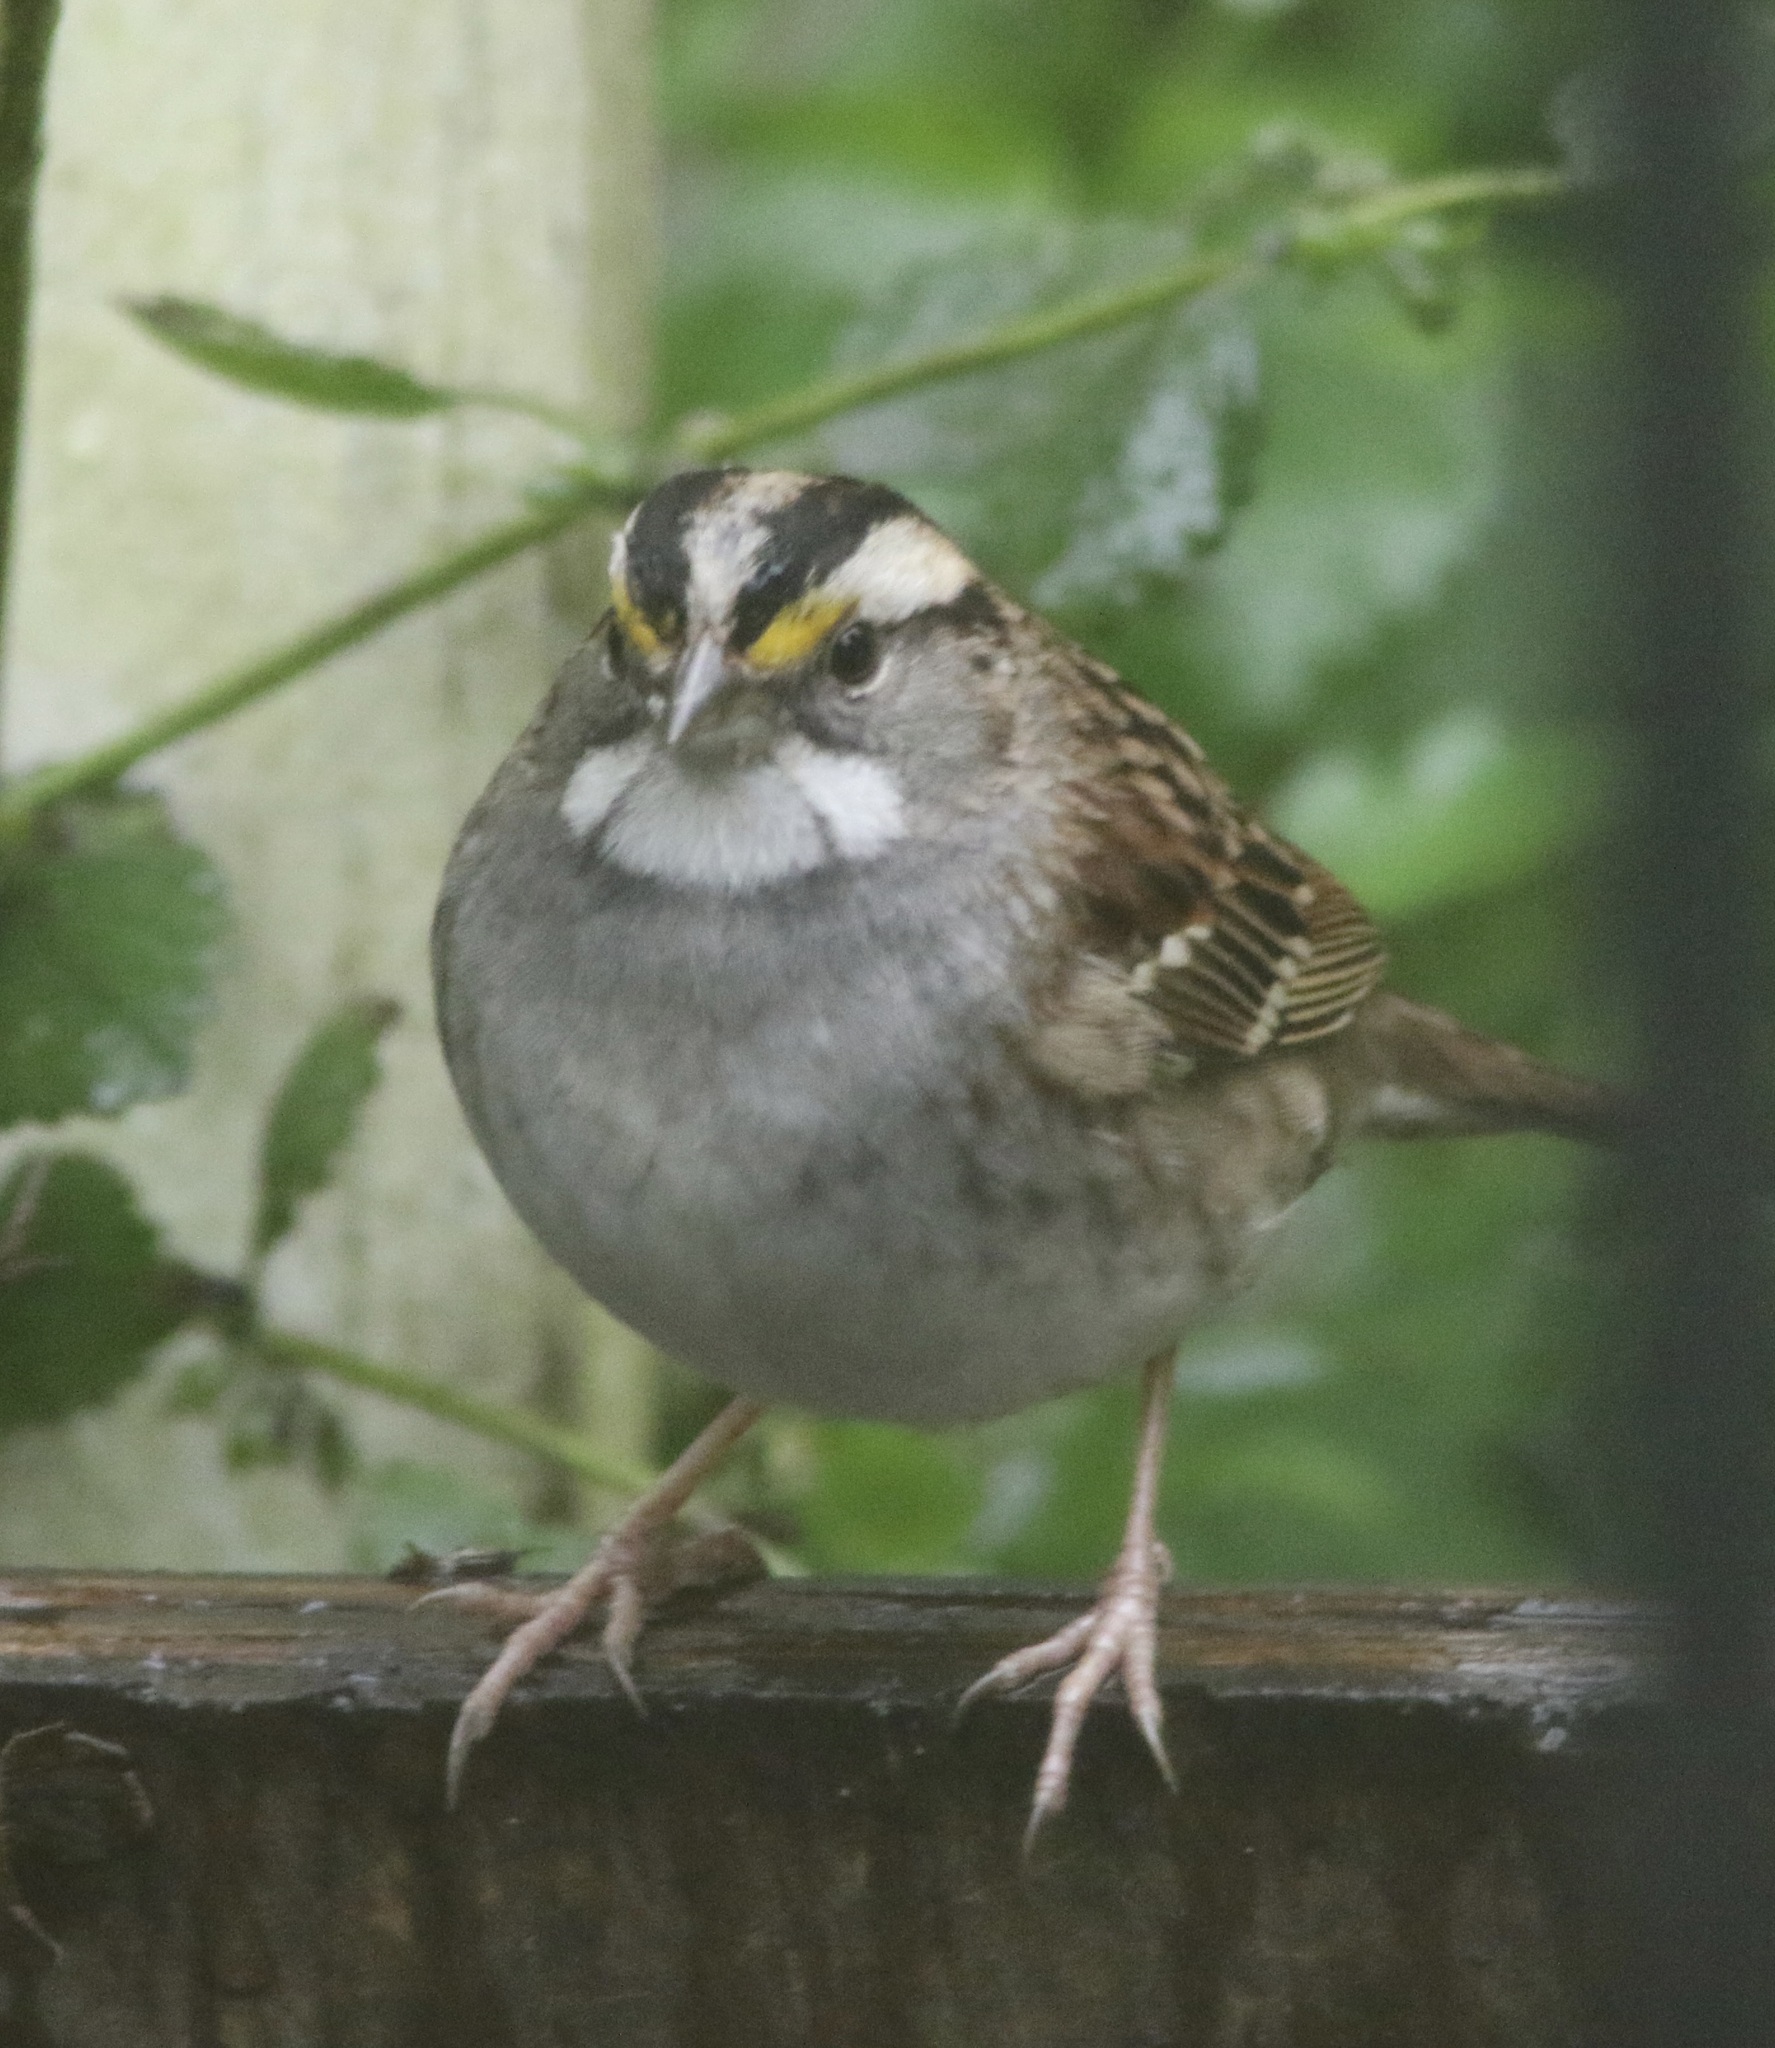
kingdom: Animalia
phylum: Chordata
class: Aves
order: Passeriformes
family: Passerellidae
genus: Zonotrichia
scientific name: Zonotrichia albicollis
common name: White-throated sparrow
